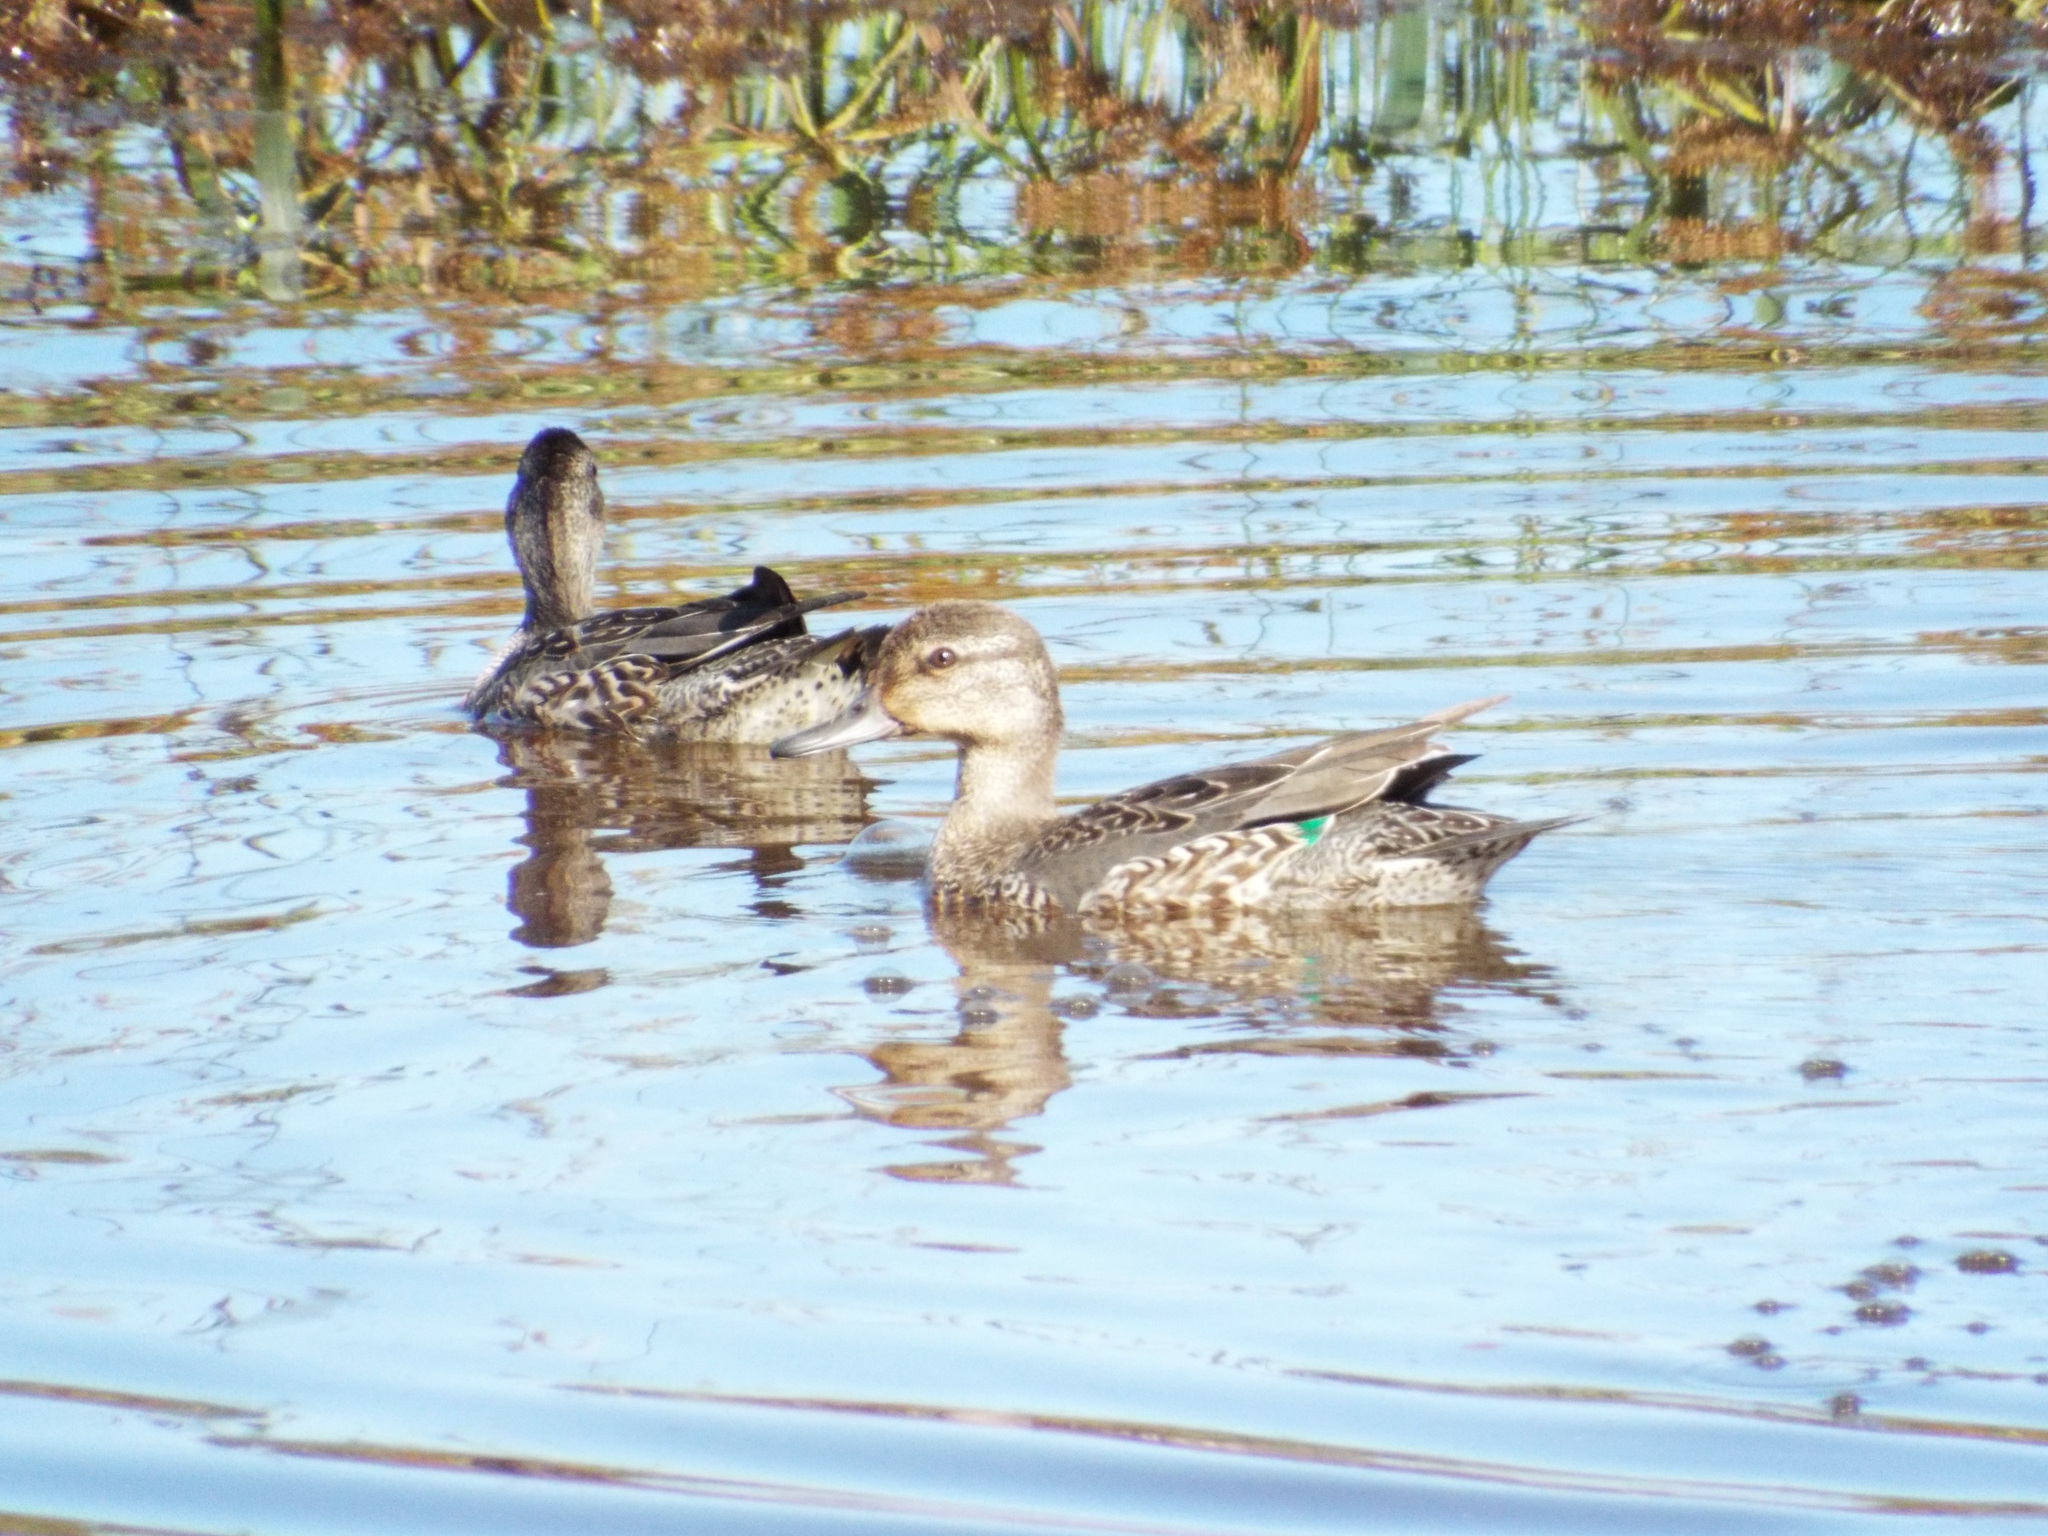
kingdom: Animalia
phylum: Chordata
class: Aves
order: Anseriformes
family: Anatidae
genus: Anas
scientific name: Anas crecca
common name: Eurasian teal
